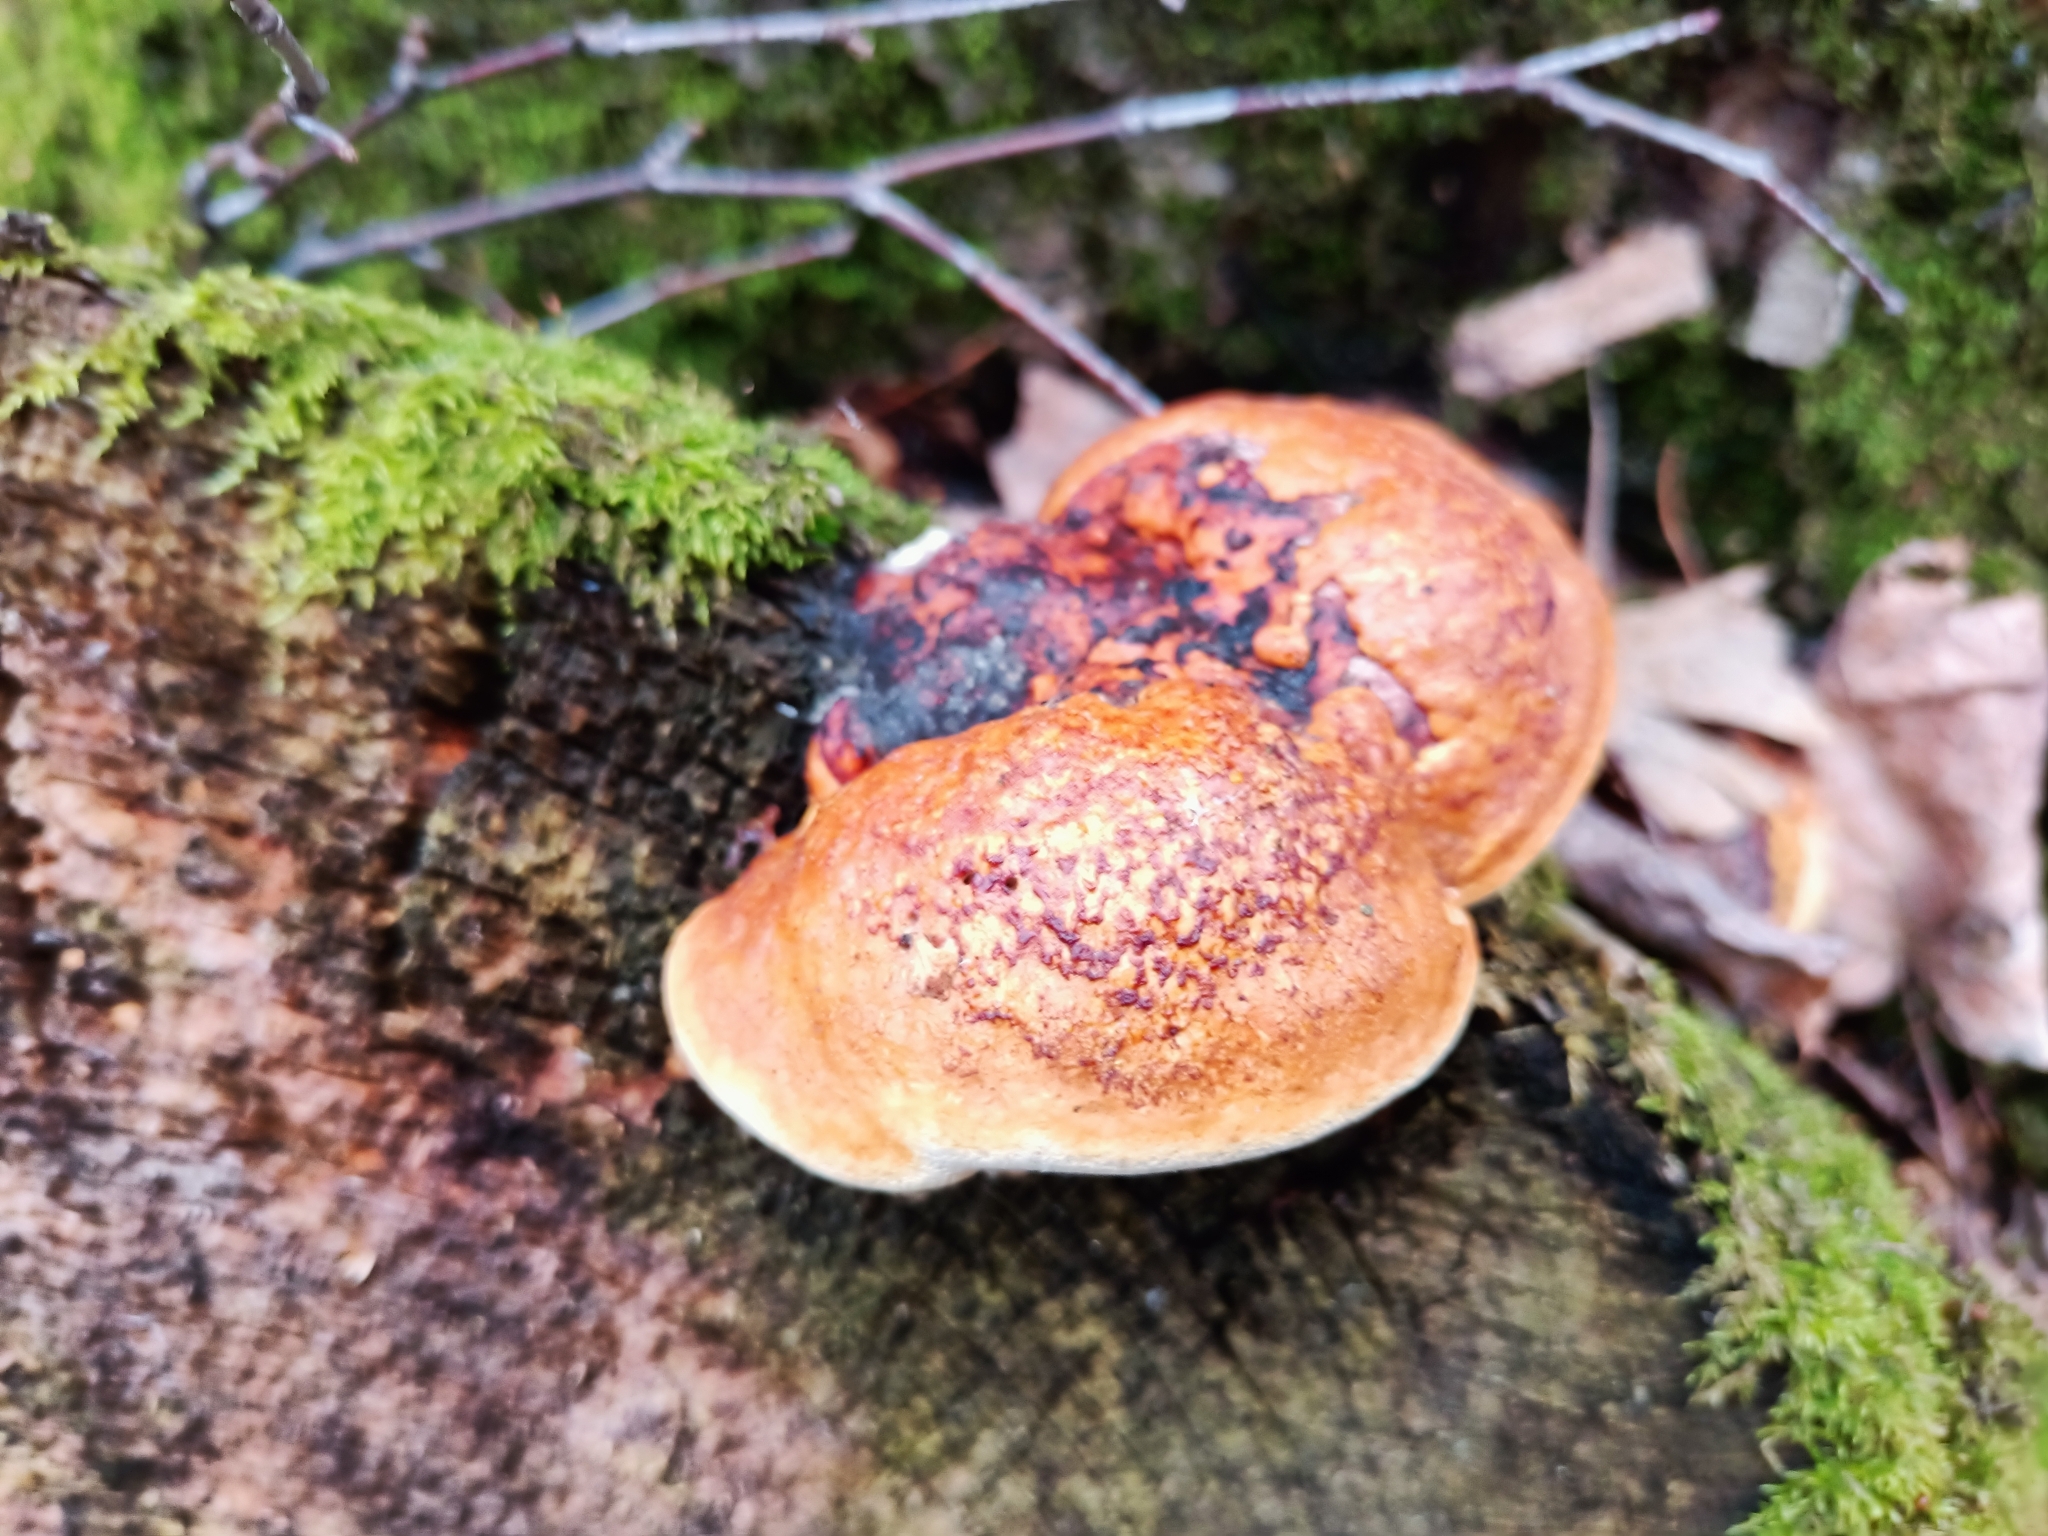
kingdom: Fungi
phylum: Basidiomycota
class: Agaricomycetes
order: Polyporales
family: Fomitopsidaceae
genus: Fomitopsis
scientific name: Fomitopsis pinicola
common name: Red-belted bracket
